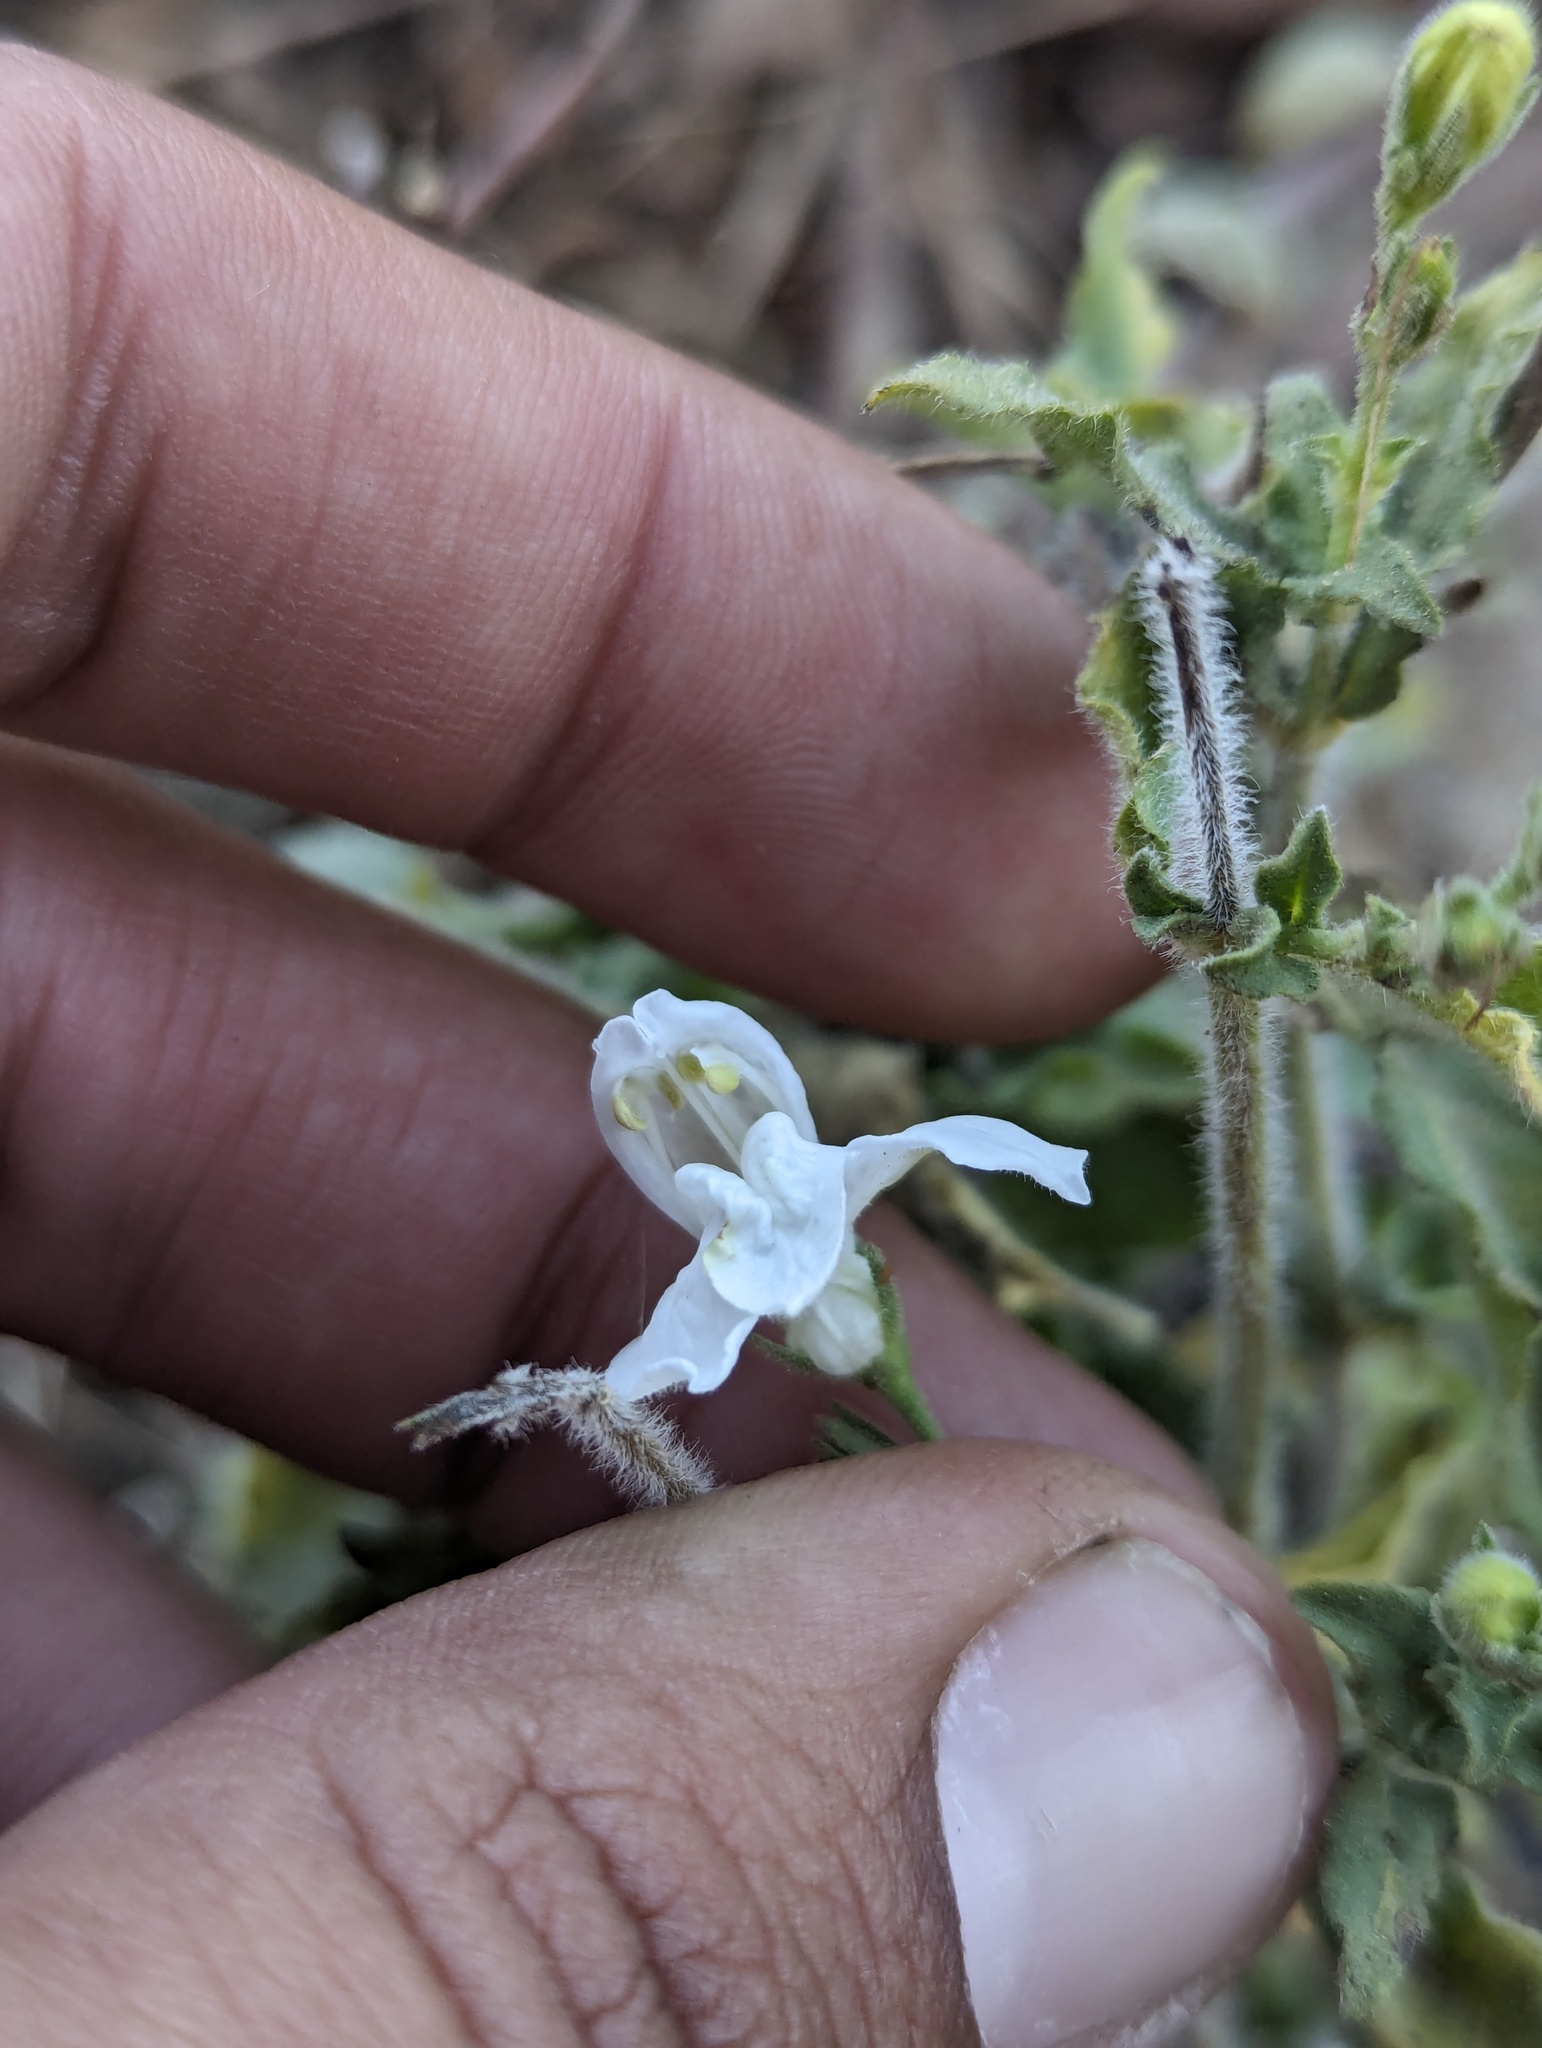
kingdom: Plantae
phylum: Tracheophyta
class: Magnoliopsida
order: Lamiales
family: Acanthaceae
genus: Justicia
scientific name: Justicia insolita
